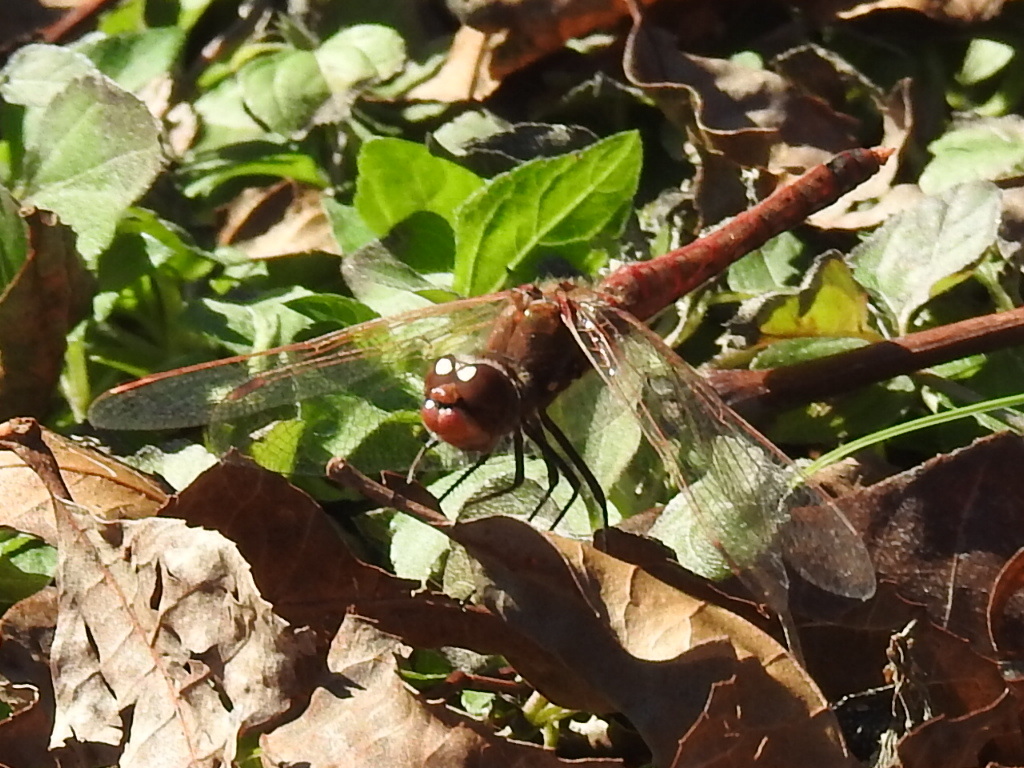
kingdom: Animalia
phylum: Arthropoda
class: Insecta
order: Odonata
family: Libellulidae
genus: Sympetrum
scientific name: Sympetrum corruptum
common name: Variegated meadowhawk
